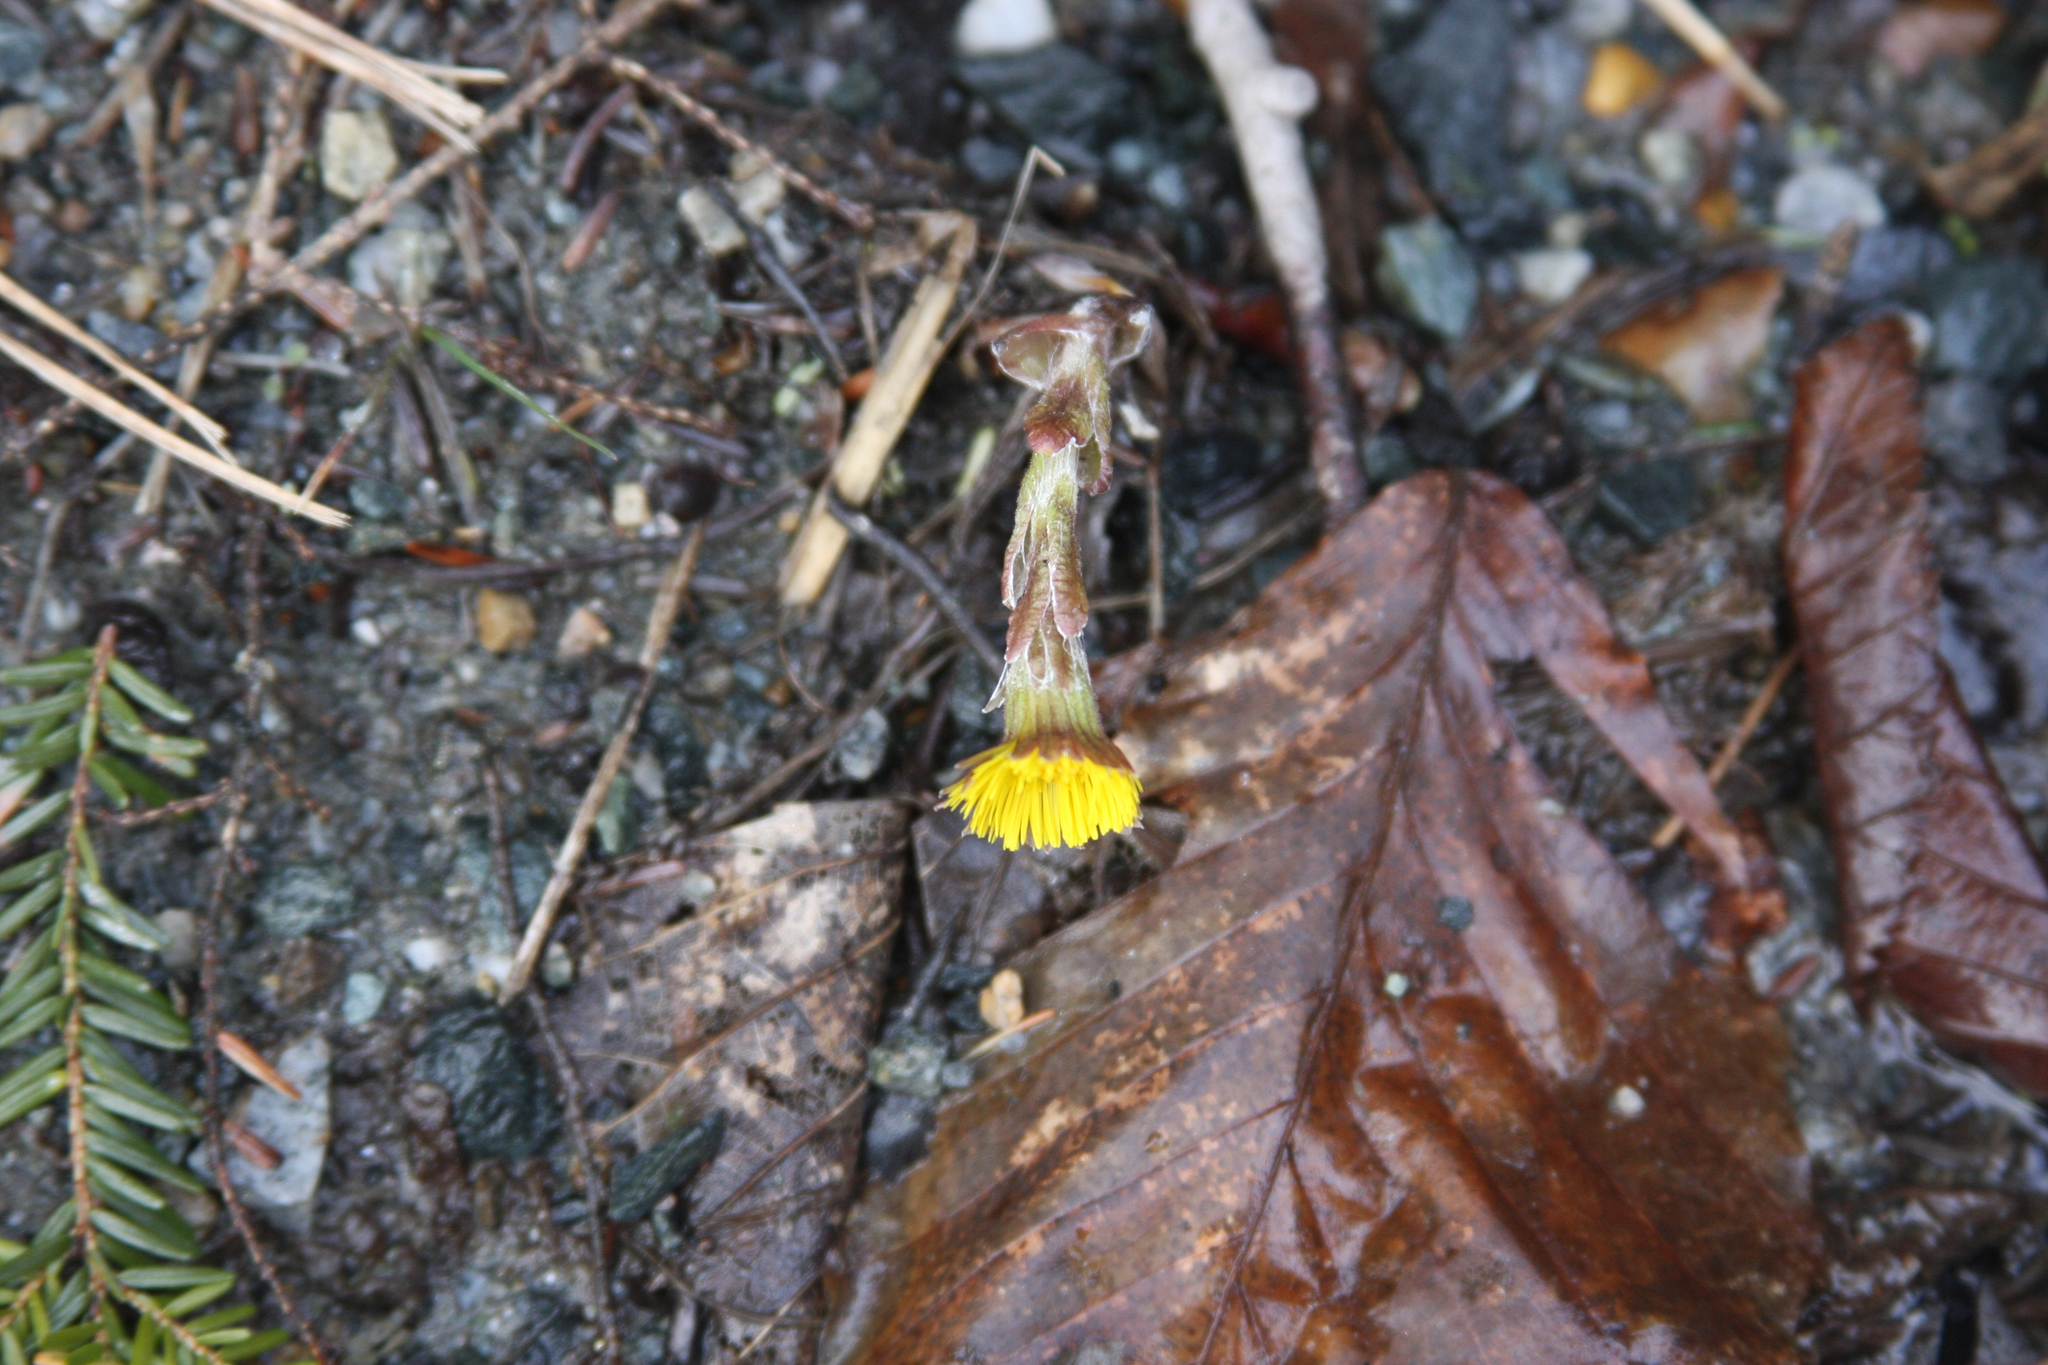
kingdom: Plantae
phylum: Tracheophyta
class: Magnoliopsida
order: Asterales
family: Asteraceae
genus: Tussilago
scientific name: Tussilago farfara
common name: Coltsfoot
